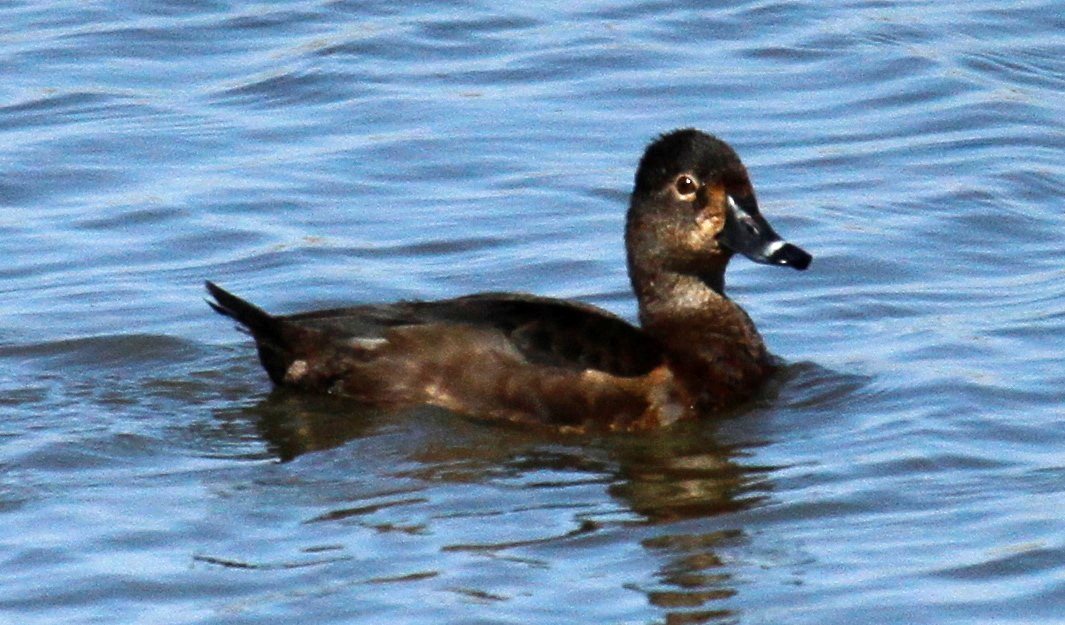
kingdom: Animalia
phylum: Chordata
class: Aves
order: Anseriformes
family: Anatidae
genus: Aythya
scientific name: Aythya collaris
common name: Ring-necked duck
